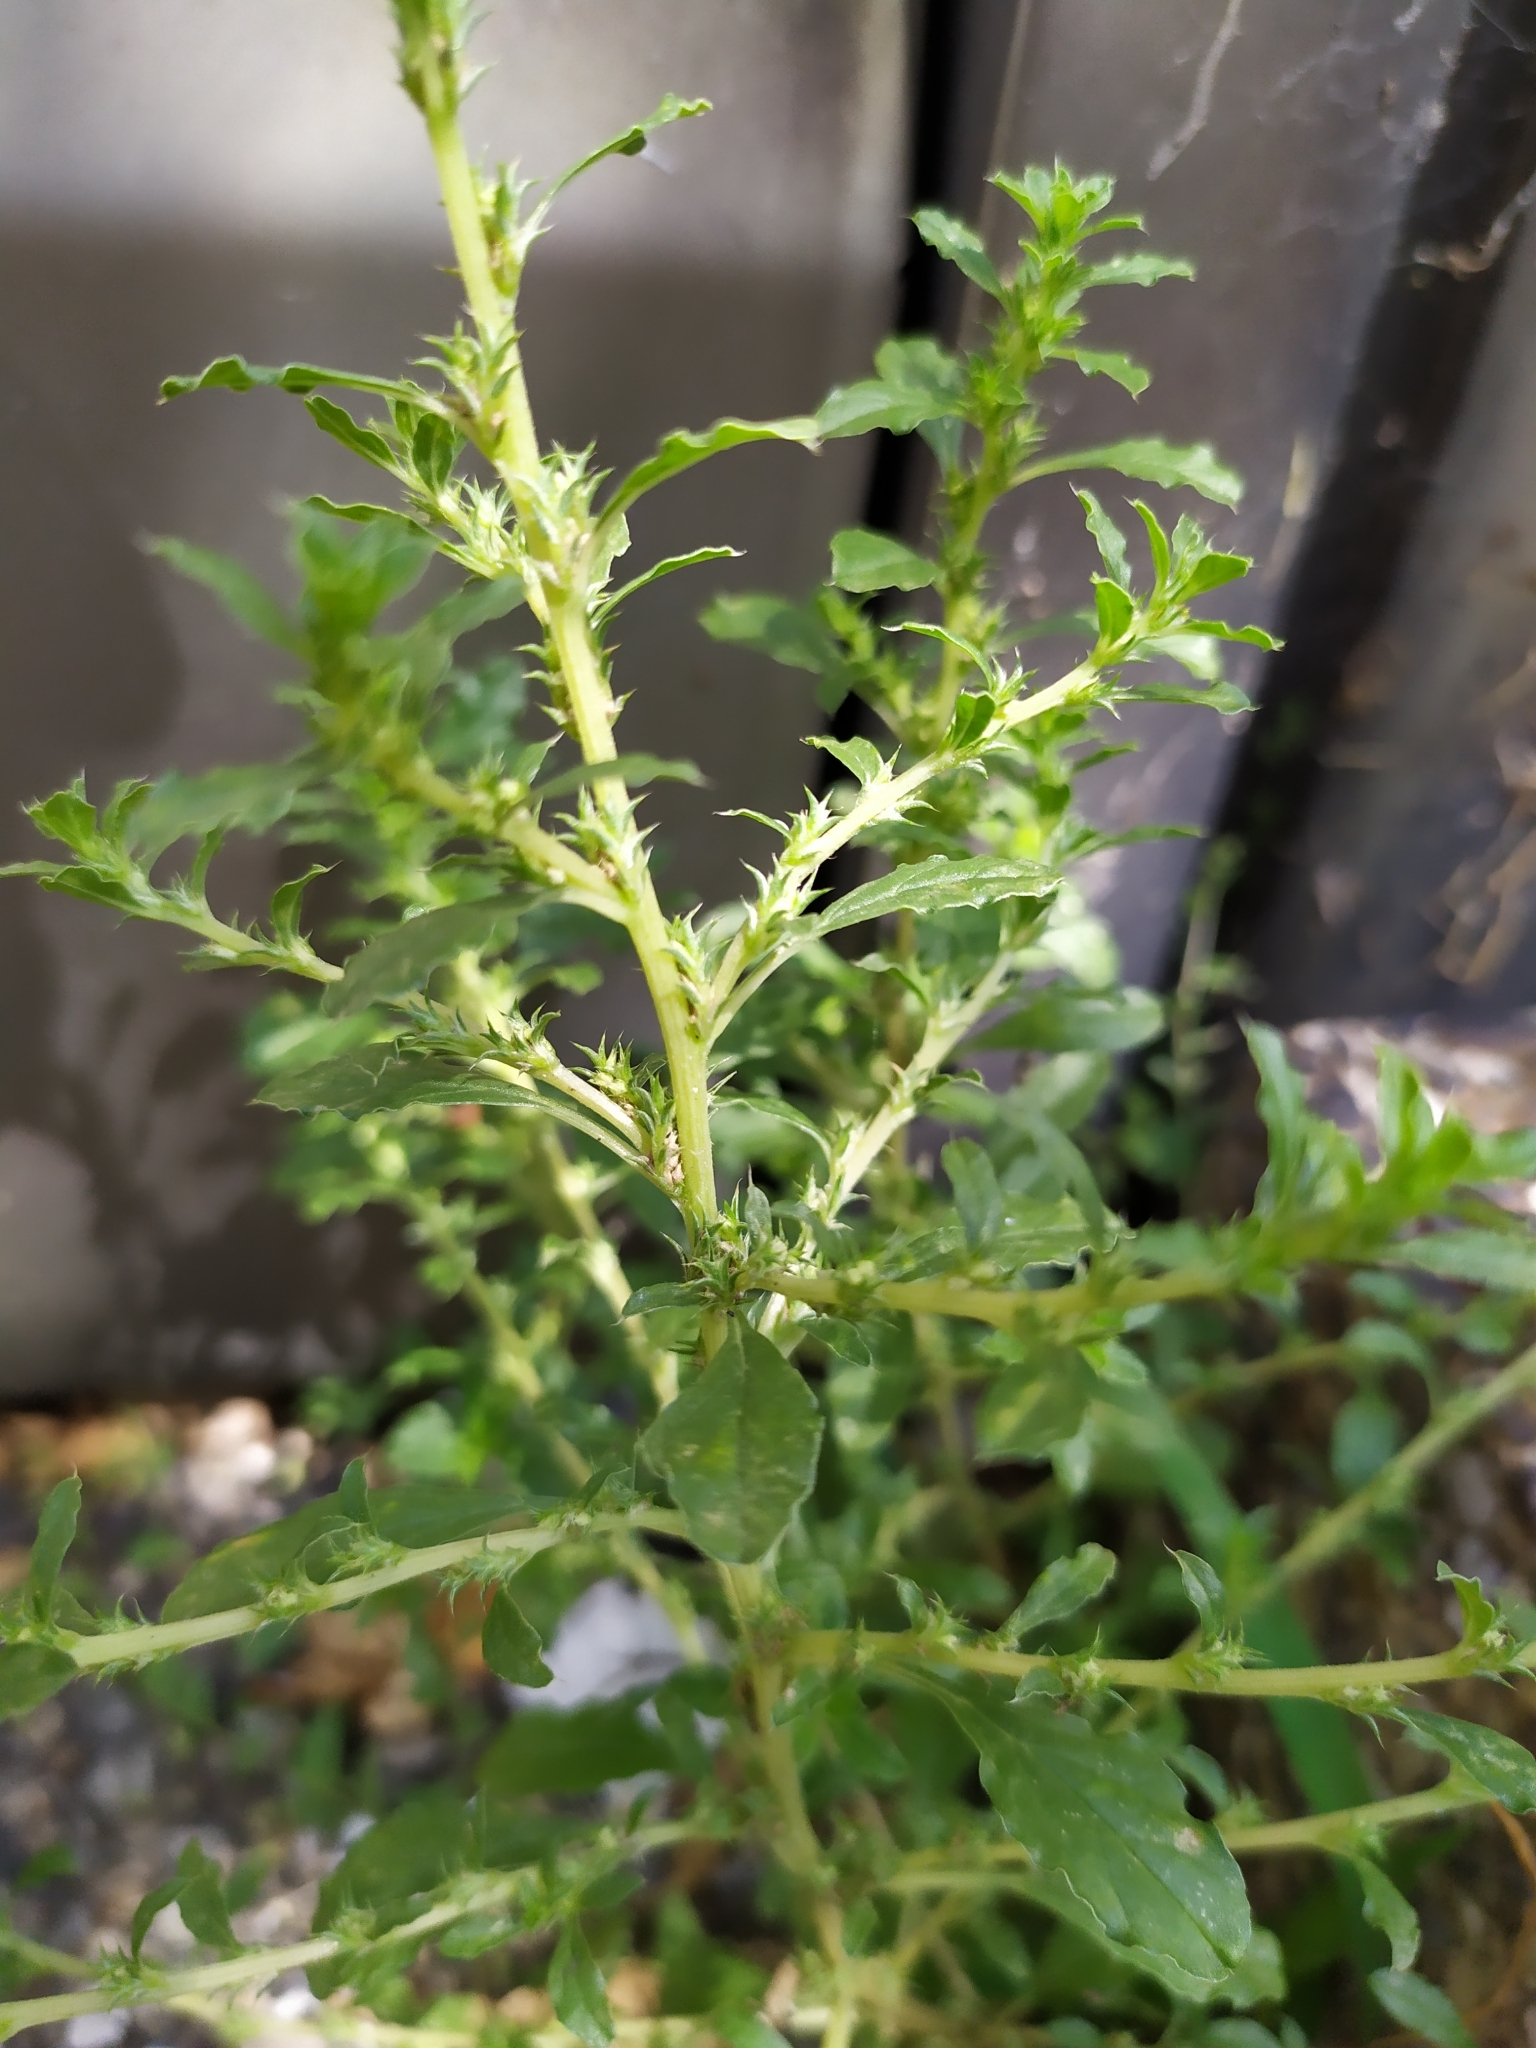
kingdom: Plantae
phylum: Tracheophyta
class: Magnoliopsida
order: Caryophyllales
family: Amaranthaceae
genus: Amaranthus
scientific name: Amaranthus albus
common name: White pigweed
